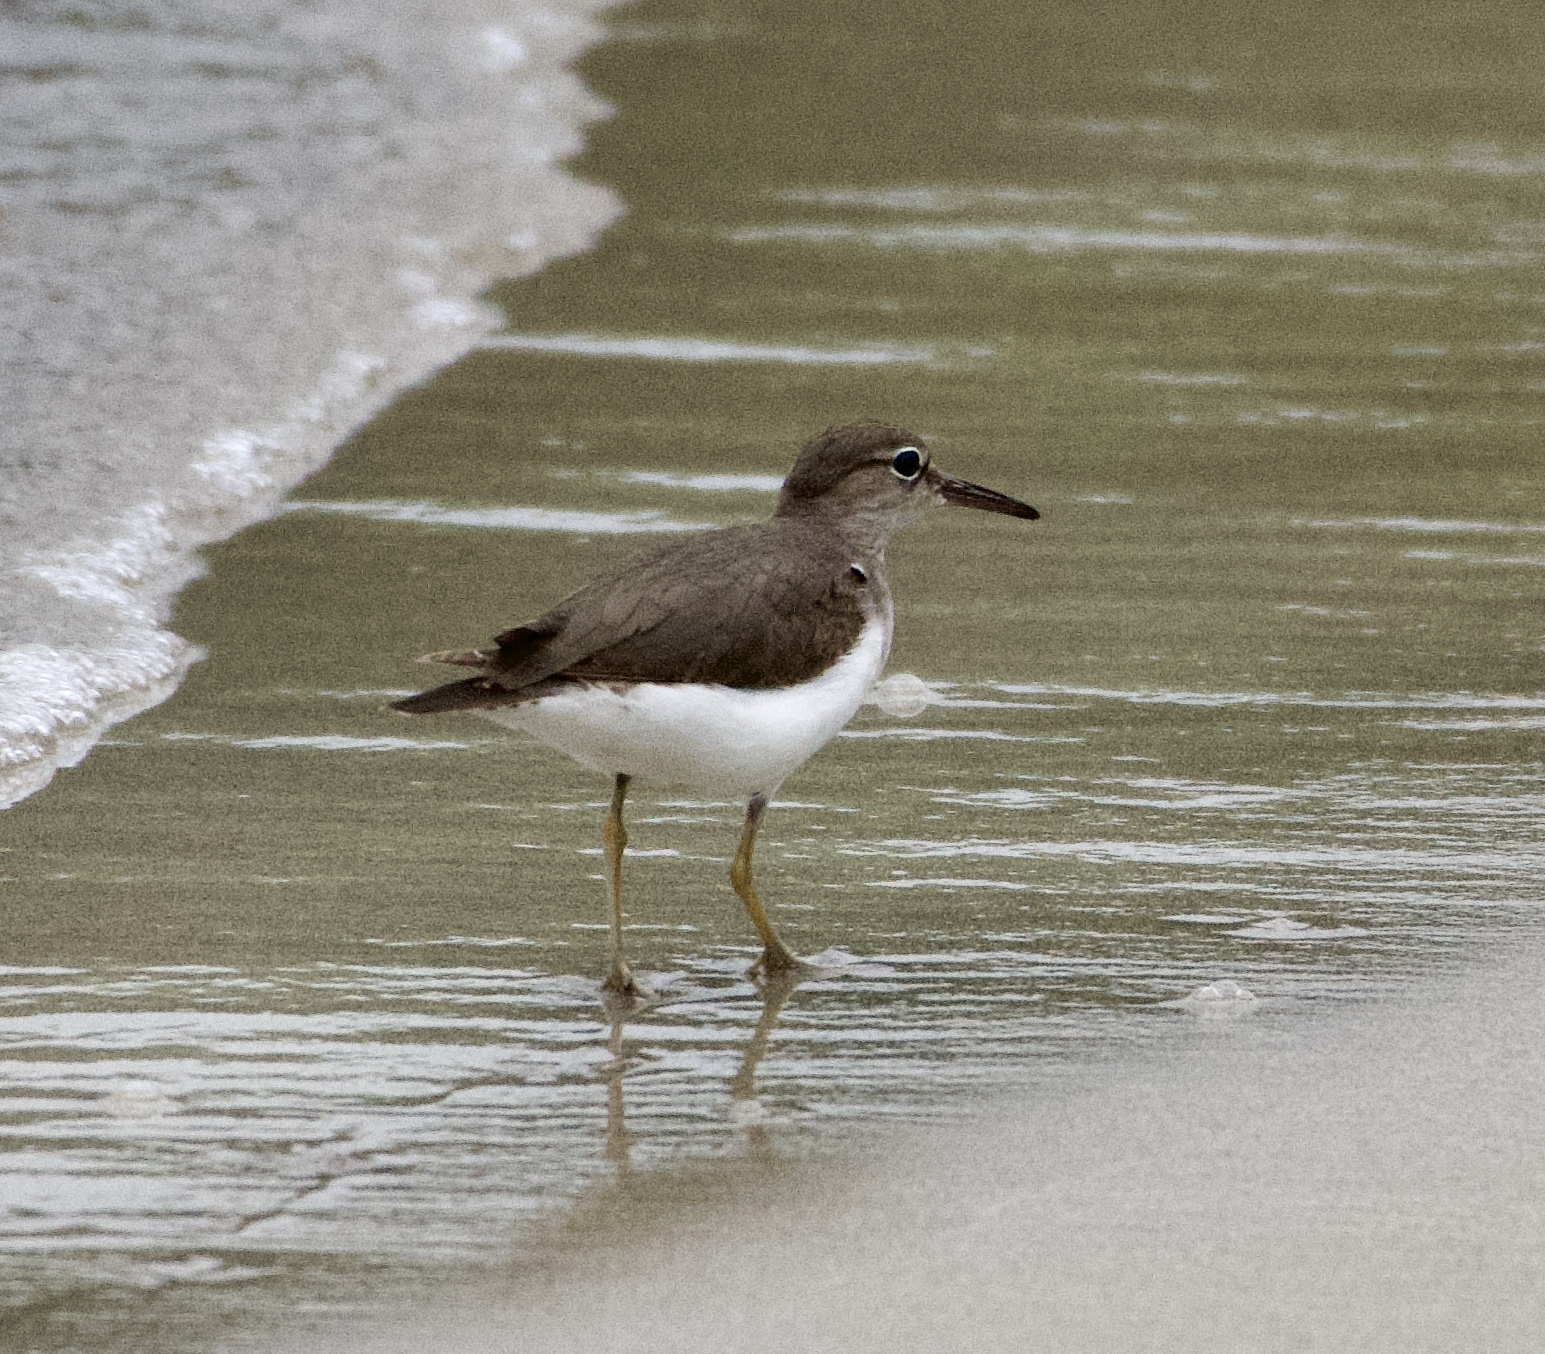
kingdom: Animalia
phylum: Chordata
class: Aves
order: Charadriiformes
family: Scolopacidae
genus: Actitis
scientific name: Actitis macularius
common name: Spotted sandpiper
